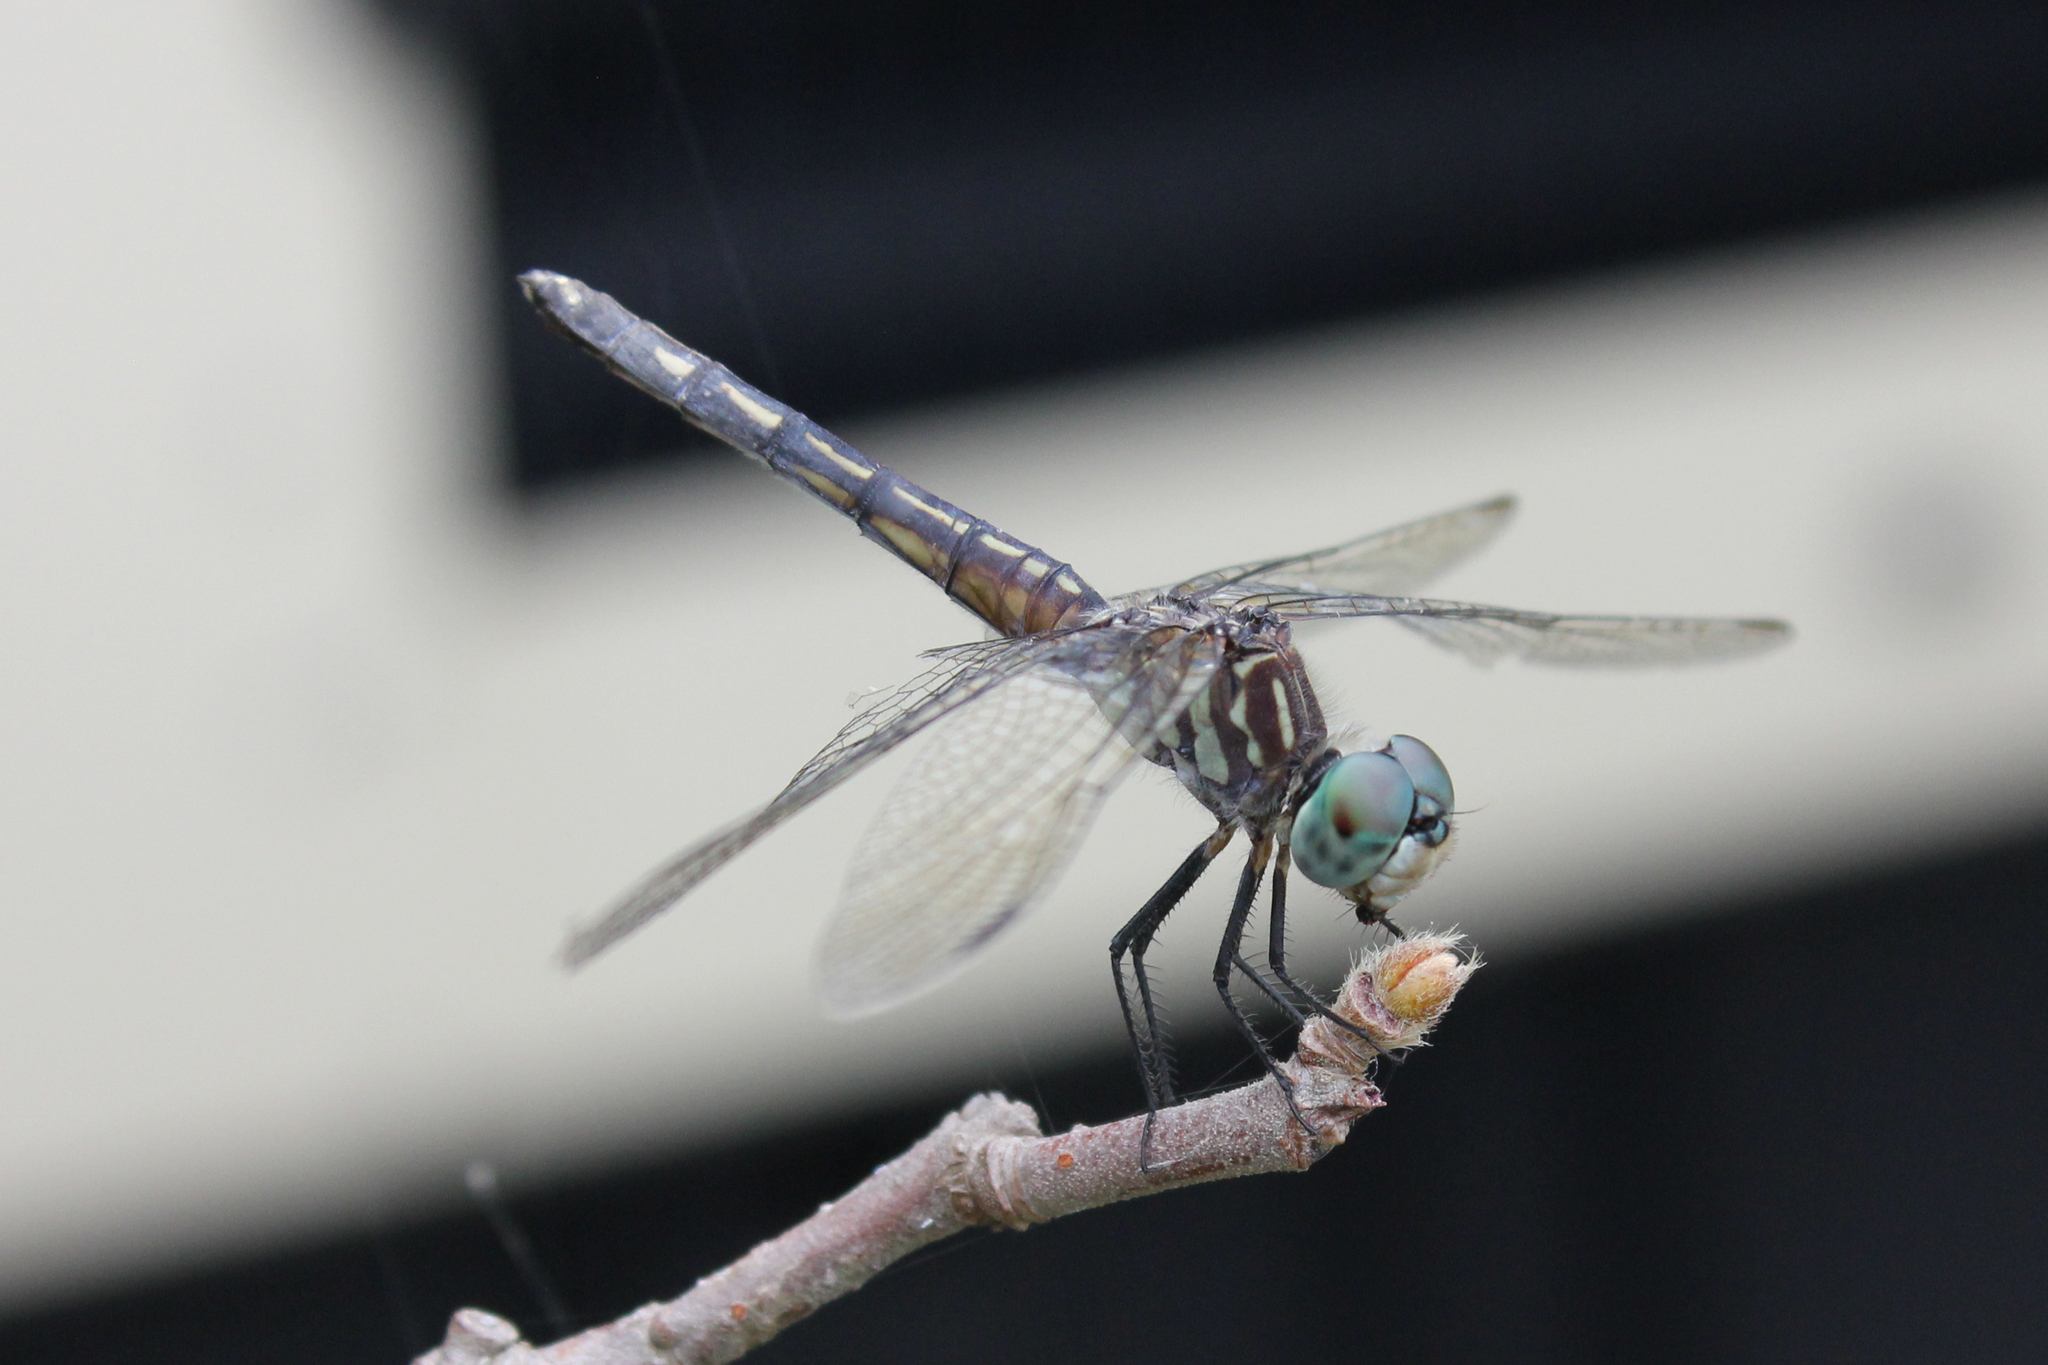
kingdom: Animalia
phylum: Arthropoda
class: Insecta
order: Odonata
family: Libellulidae
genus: Pachydiplax
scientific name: Pachydiplax longipennis
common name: Blue dasher
